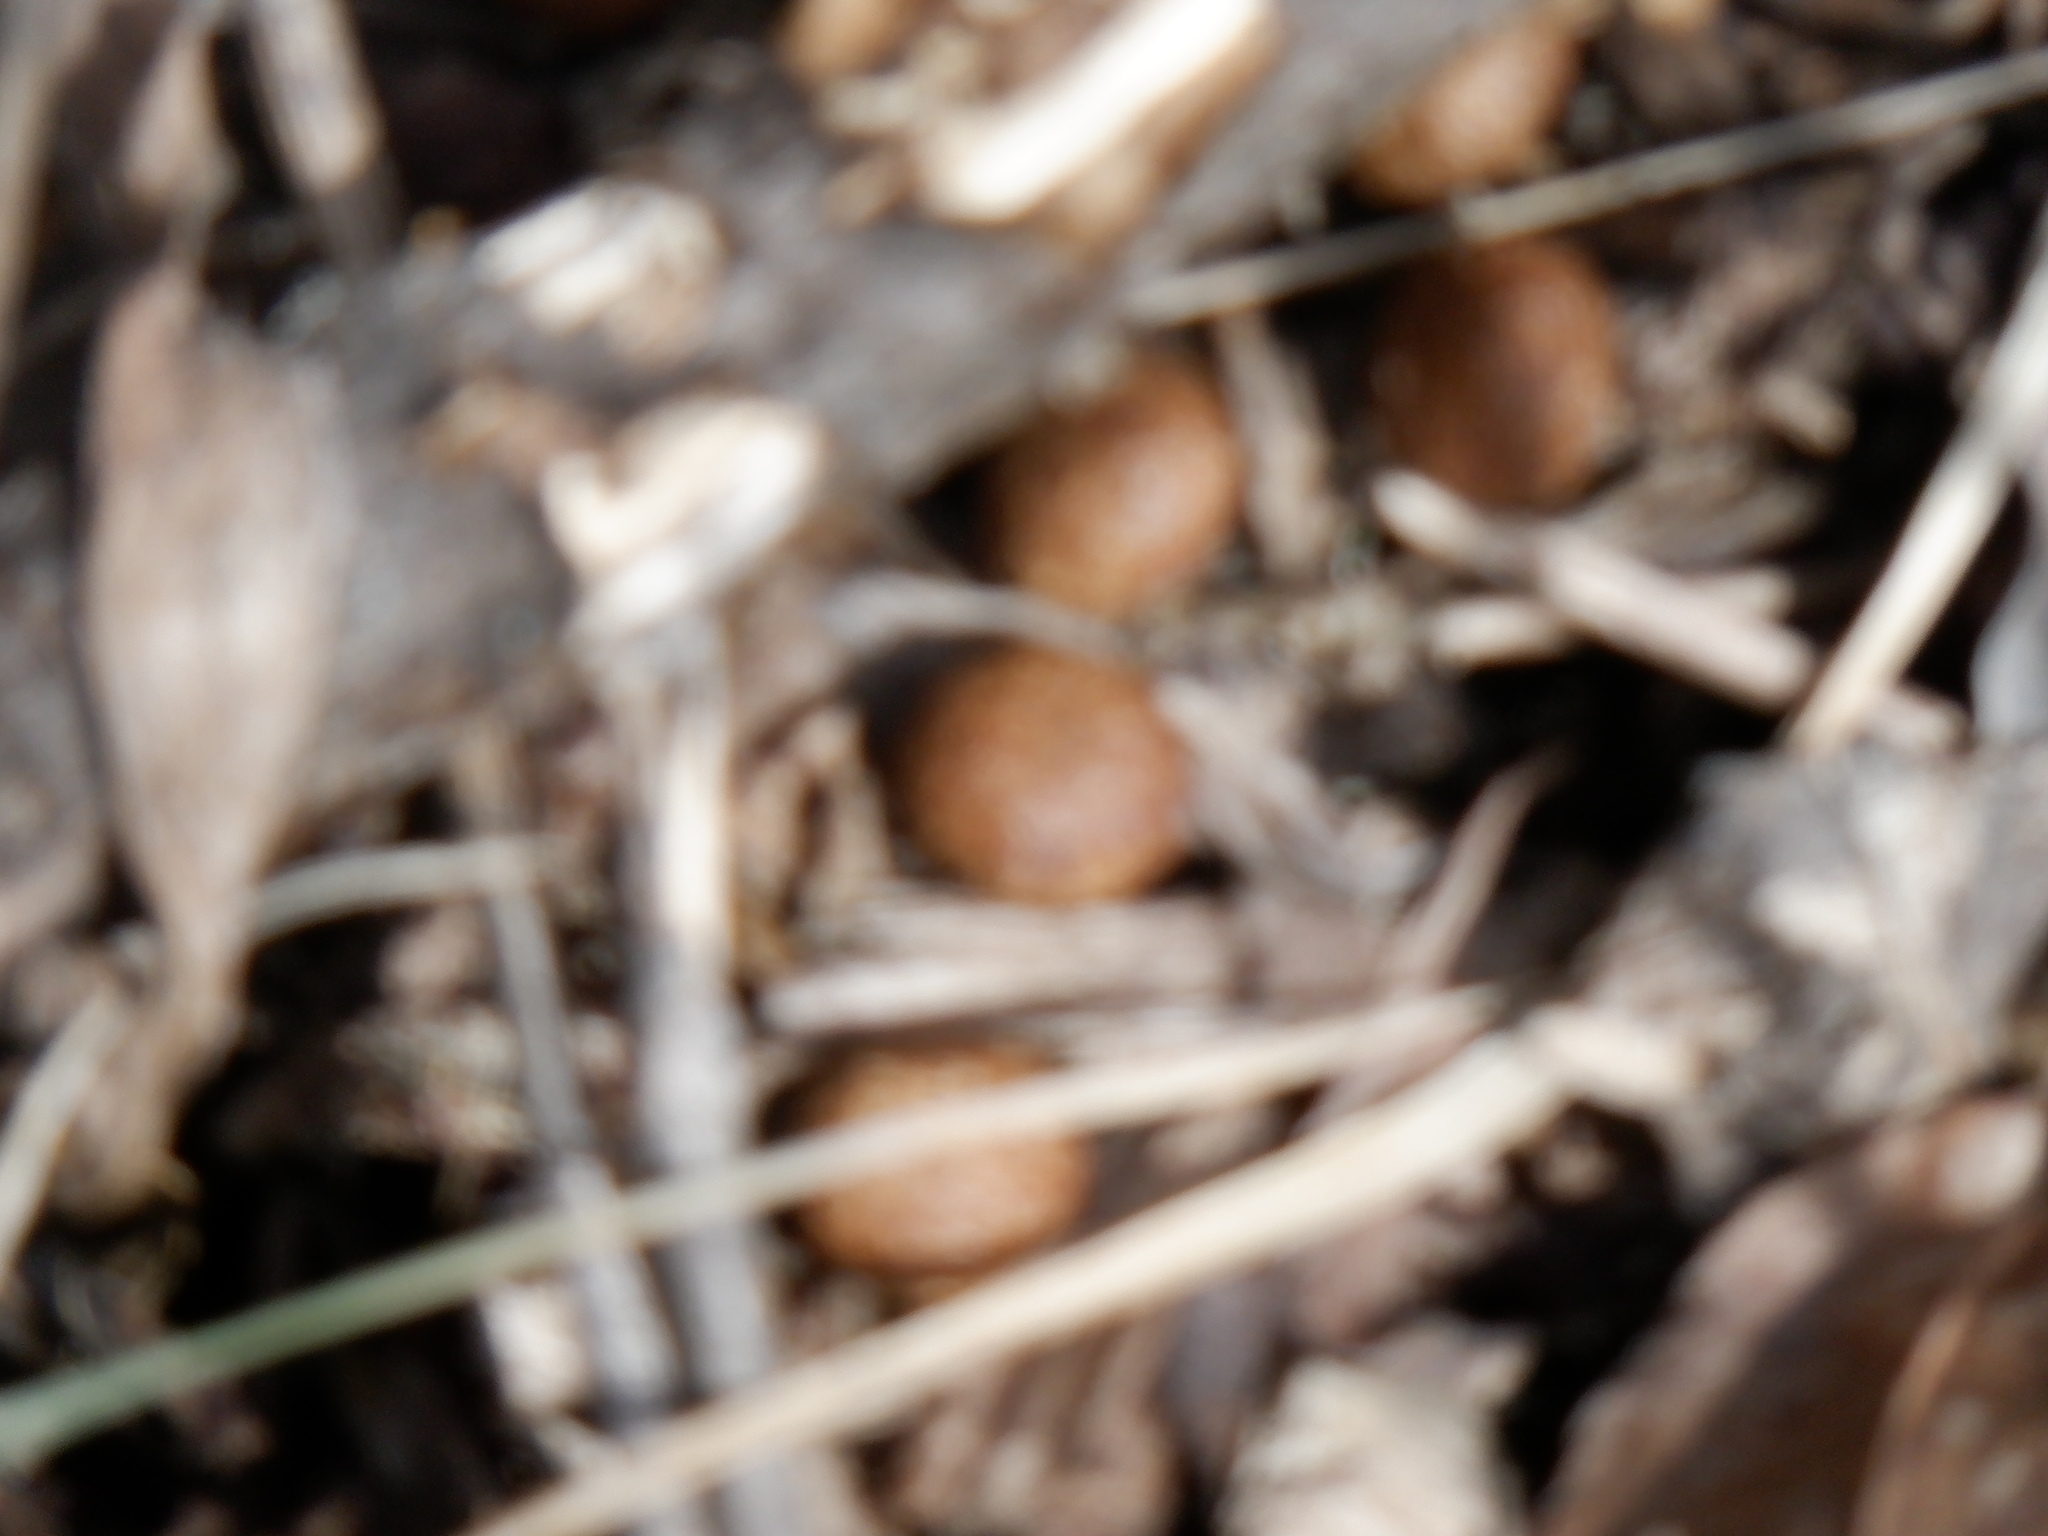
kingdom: Animalia
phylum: Chordata
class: Mammalia
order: Lagomorpha
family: Leporidae
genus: Sylvilagus
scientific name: Sylvilagus floridanus
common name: Eastern cottontail
